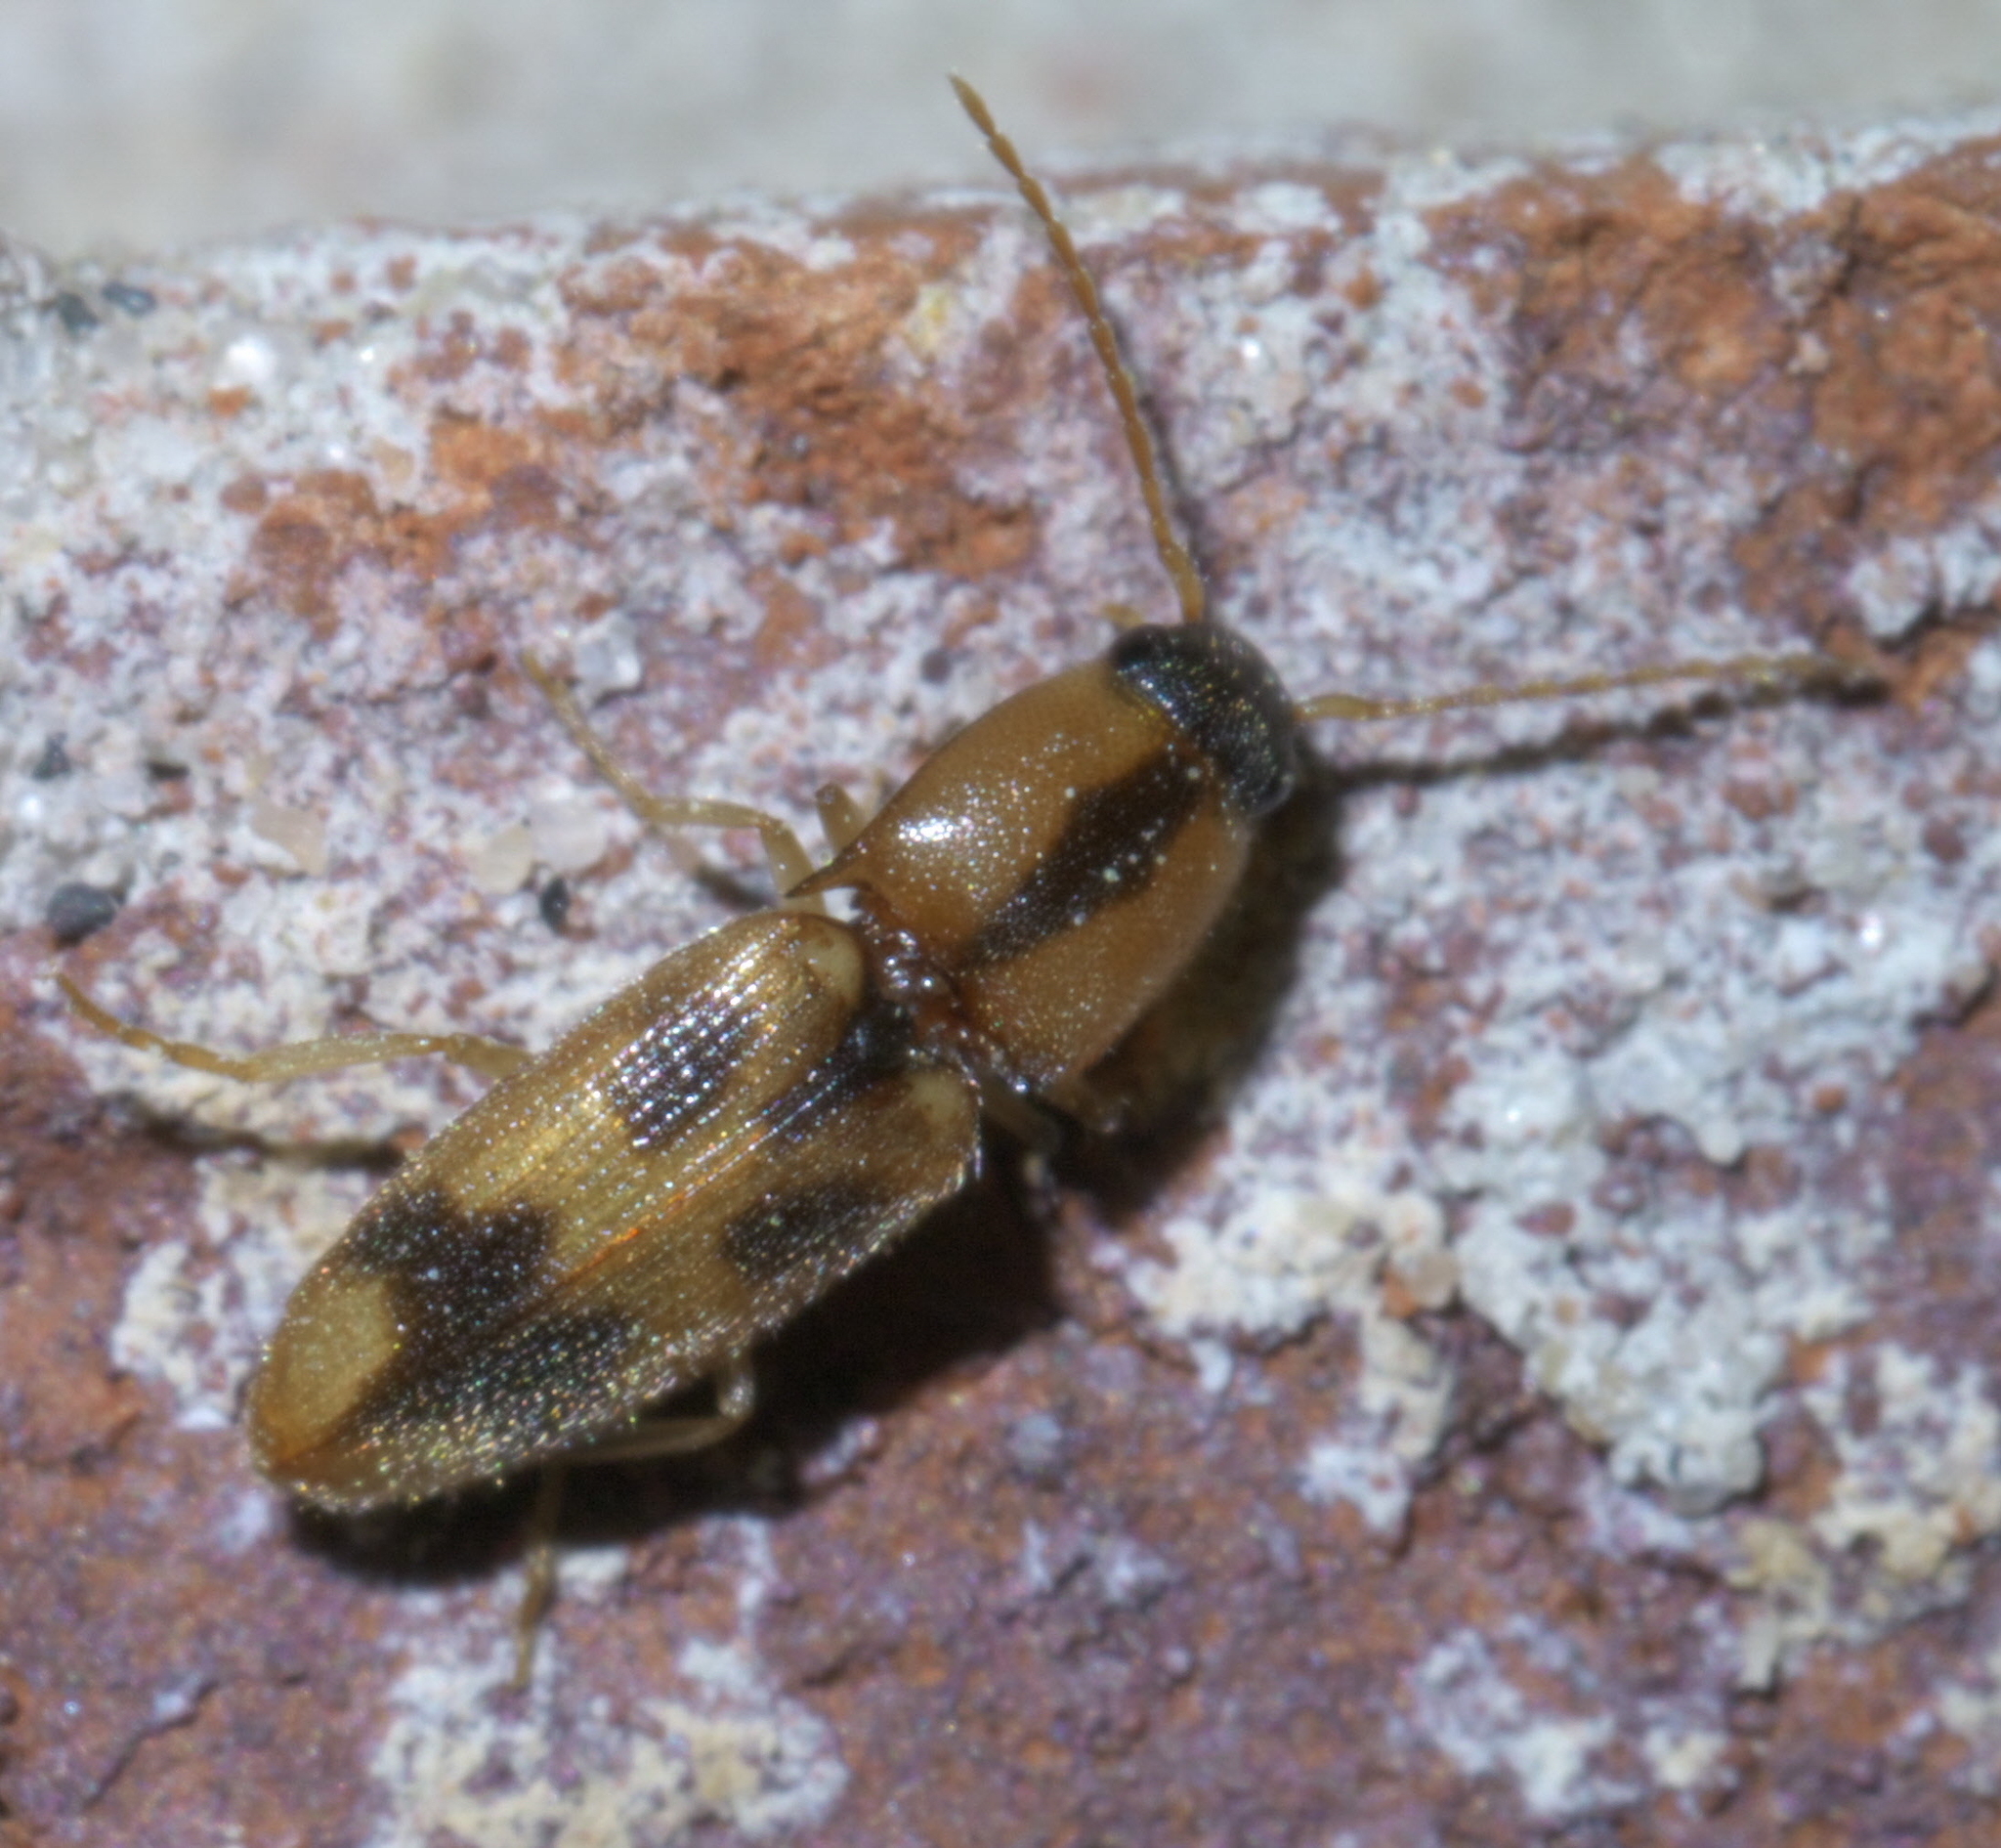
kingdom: Animalia
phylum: Arthropoda
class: Insecta
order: Coleoptera
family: Elateridae
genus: Aeolus
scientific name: Aeolus mellillus
